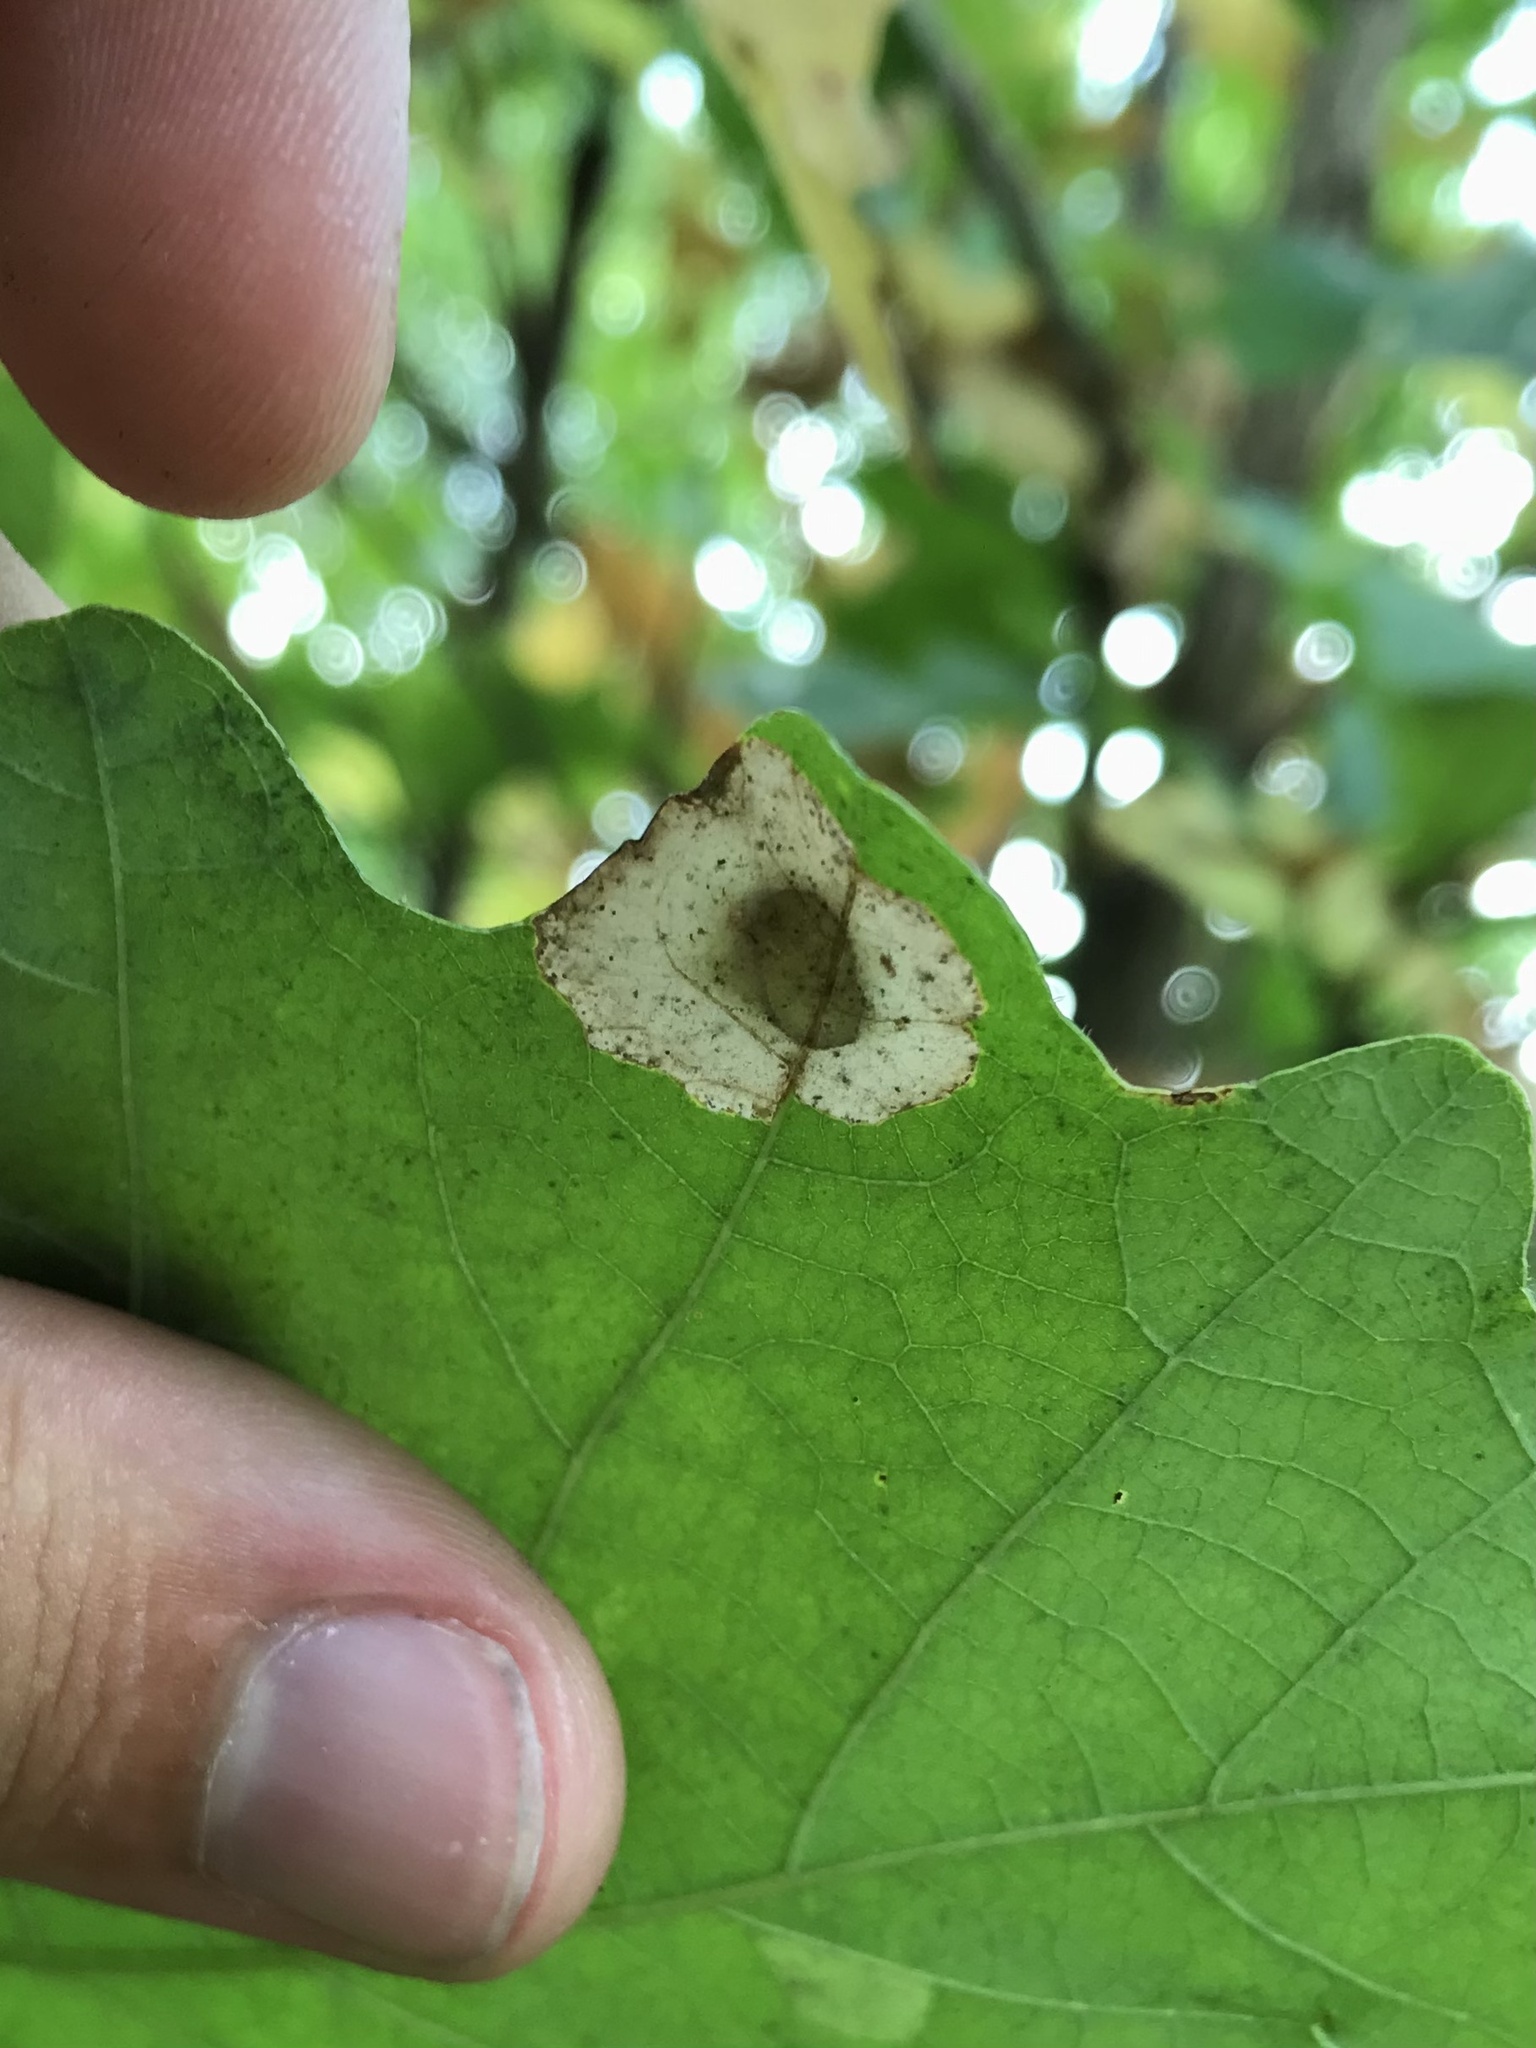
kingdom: Animalia
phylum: Arthropoda
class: Insecta
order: Lepidoptera
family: Gracillariidae
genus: Phyllonorycter
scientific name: Phyllonorycter basistrigella
